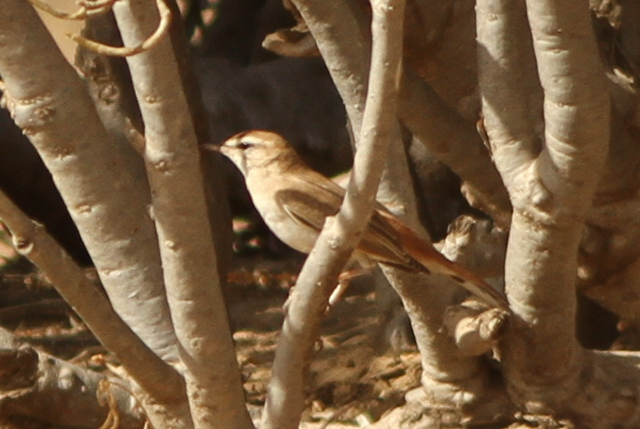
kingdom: Animalia
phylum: Chordata
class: Aves
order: Passeriformes
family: Muscicapidae
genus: Erythropygia
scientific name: Erythropygia galactotes
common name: Rufous-tailed scrub robin
